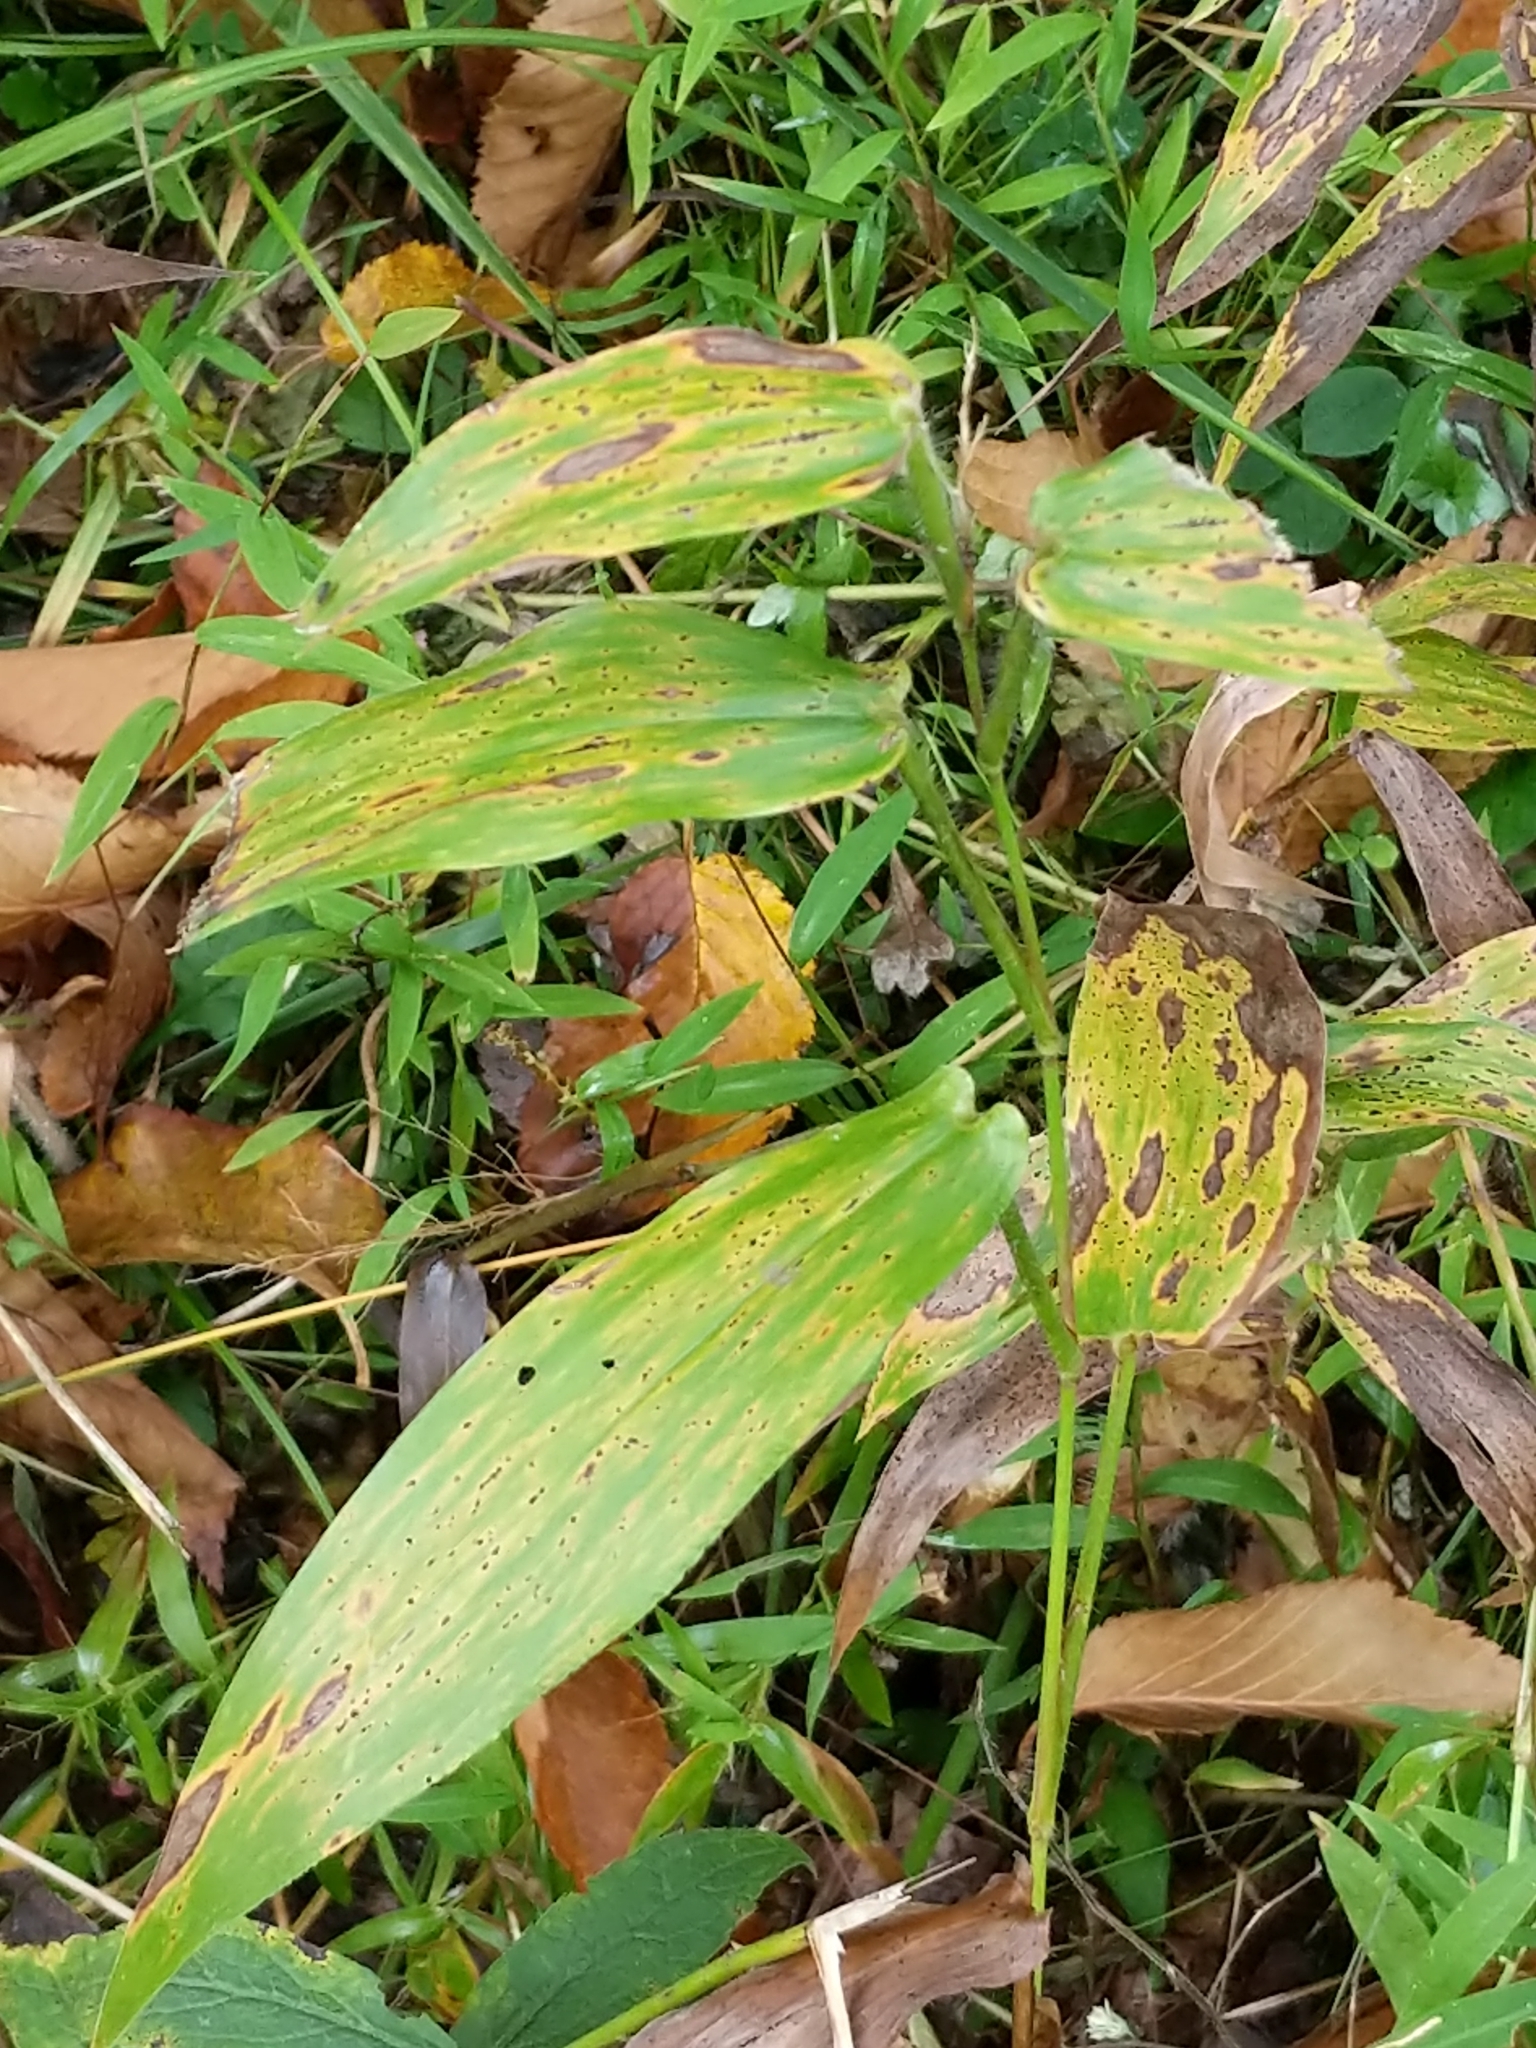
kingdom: Plantae
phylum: Tracheophyta
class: Liliopsida
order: Poales
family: Poaceae
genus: Dichanthelium
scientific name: Dichanthelium clandestinum
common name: Deer-tongue grass
